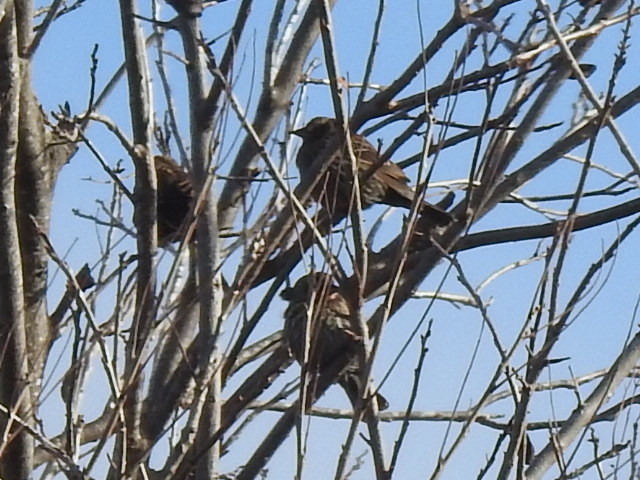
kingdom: Animalia
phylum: Chordata
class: Aves
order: Passeriformes
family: Icteridae
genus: Agelaius
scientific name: Agelaius phoeniceus
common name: Red-winged blackbird
